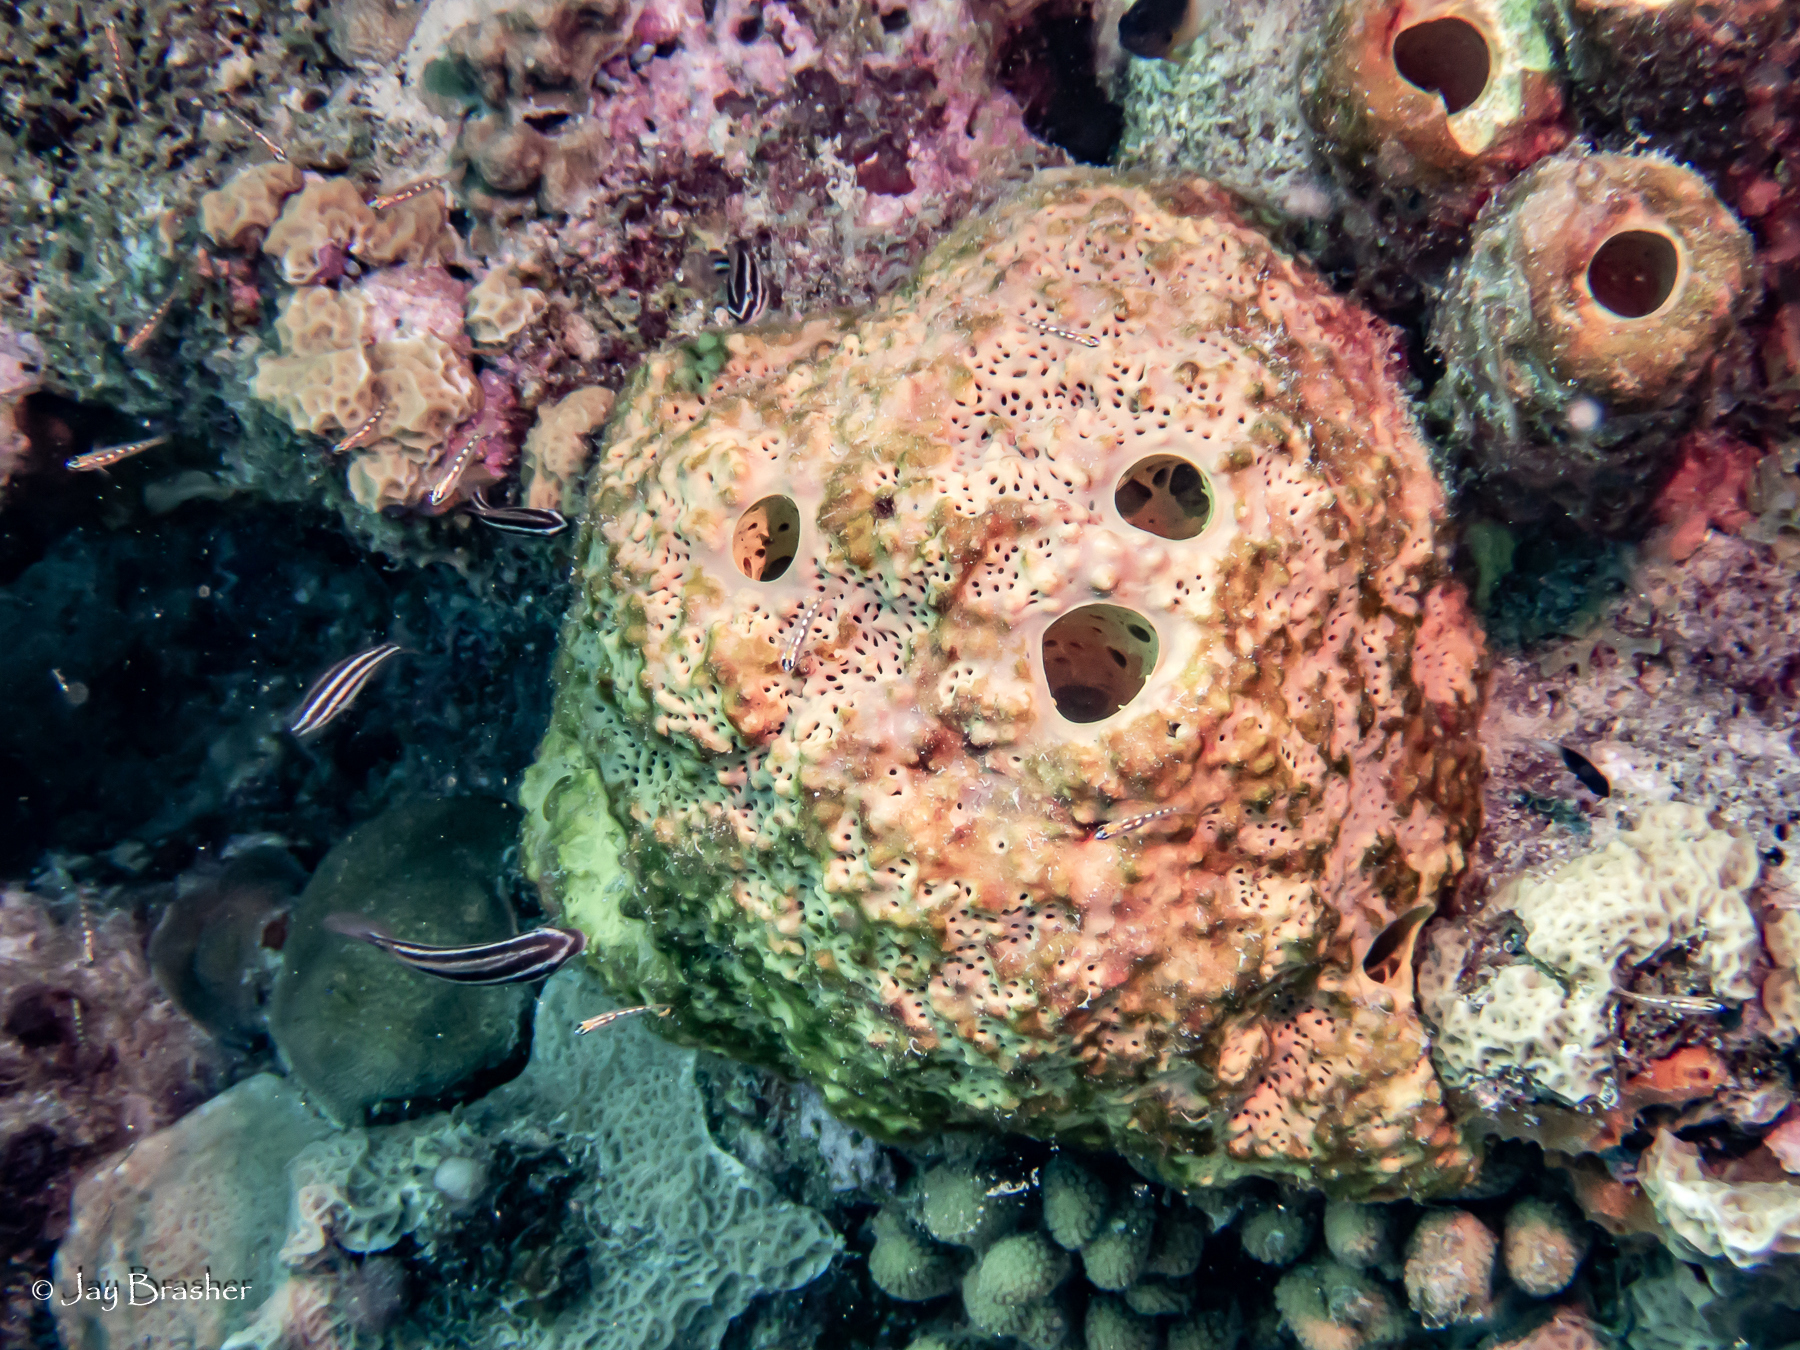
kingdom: Animalia
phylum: Porifera
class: Demospongiae
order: Verongiida
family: Aplysinidae
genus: Aiolochroia
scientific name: Aiolochroia crassa
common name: Branching tube sponge
